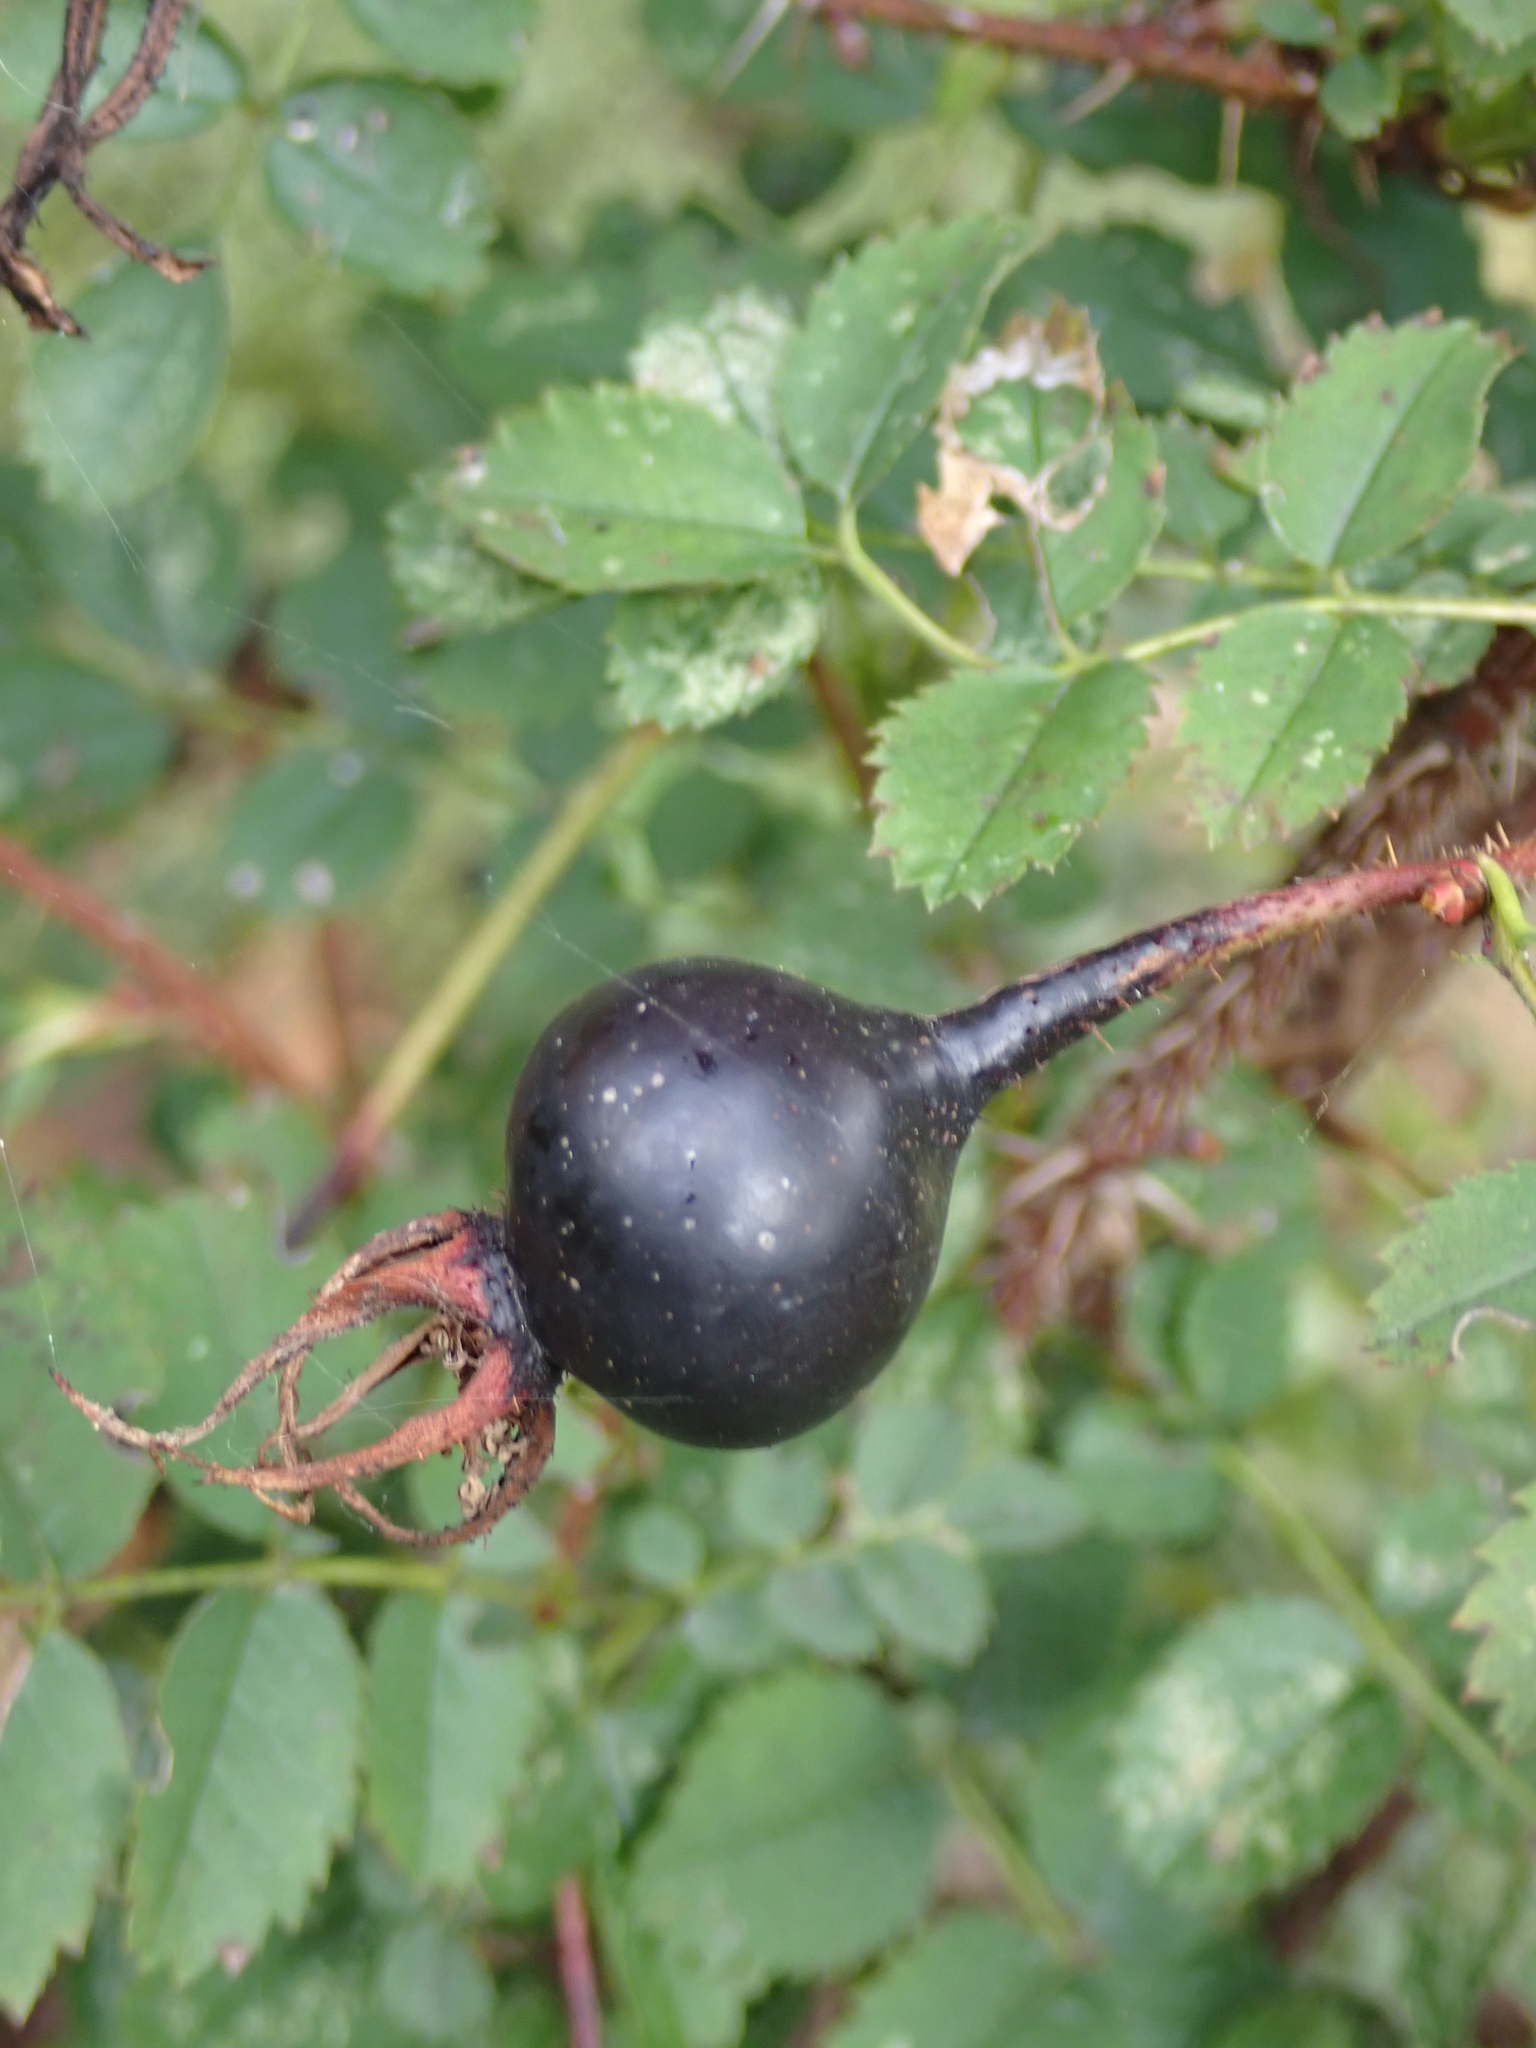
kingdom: Plantae
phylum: Tracheophyta
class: Magnoliopsida
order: Rosales
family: Rosaceae
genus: Rosa
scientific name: Rosa spinosissima
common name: Burnet rose
